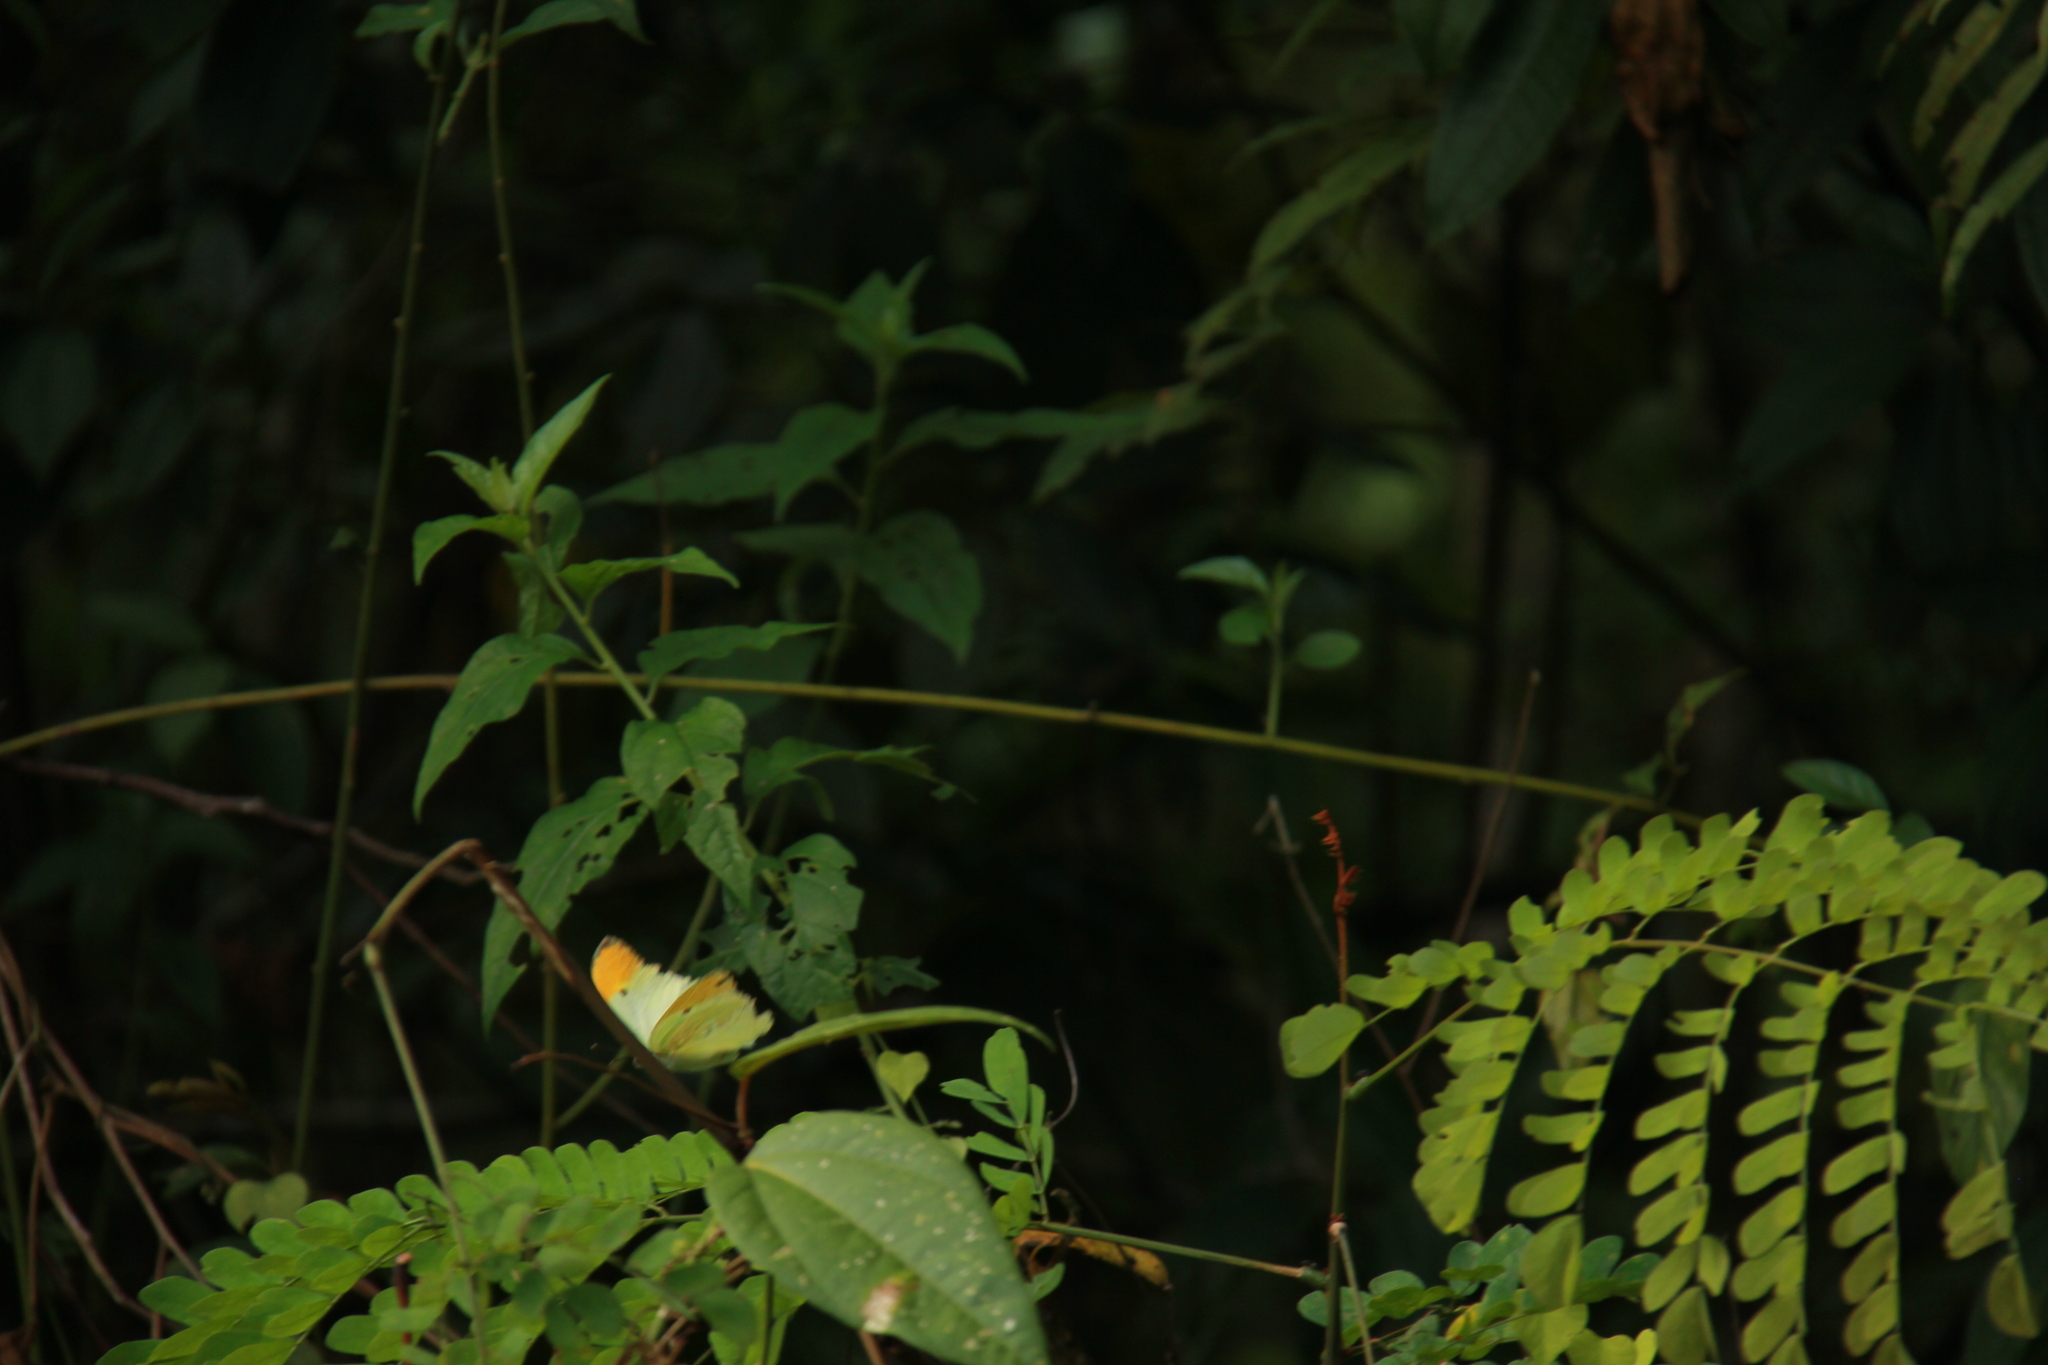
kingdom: Animalia
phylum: Arthropoda
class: Insecta
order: Lepidoptera
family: Pieridae
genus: Anteos
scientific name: Anteos menippe
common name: Orangetip angled-sulphur
